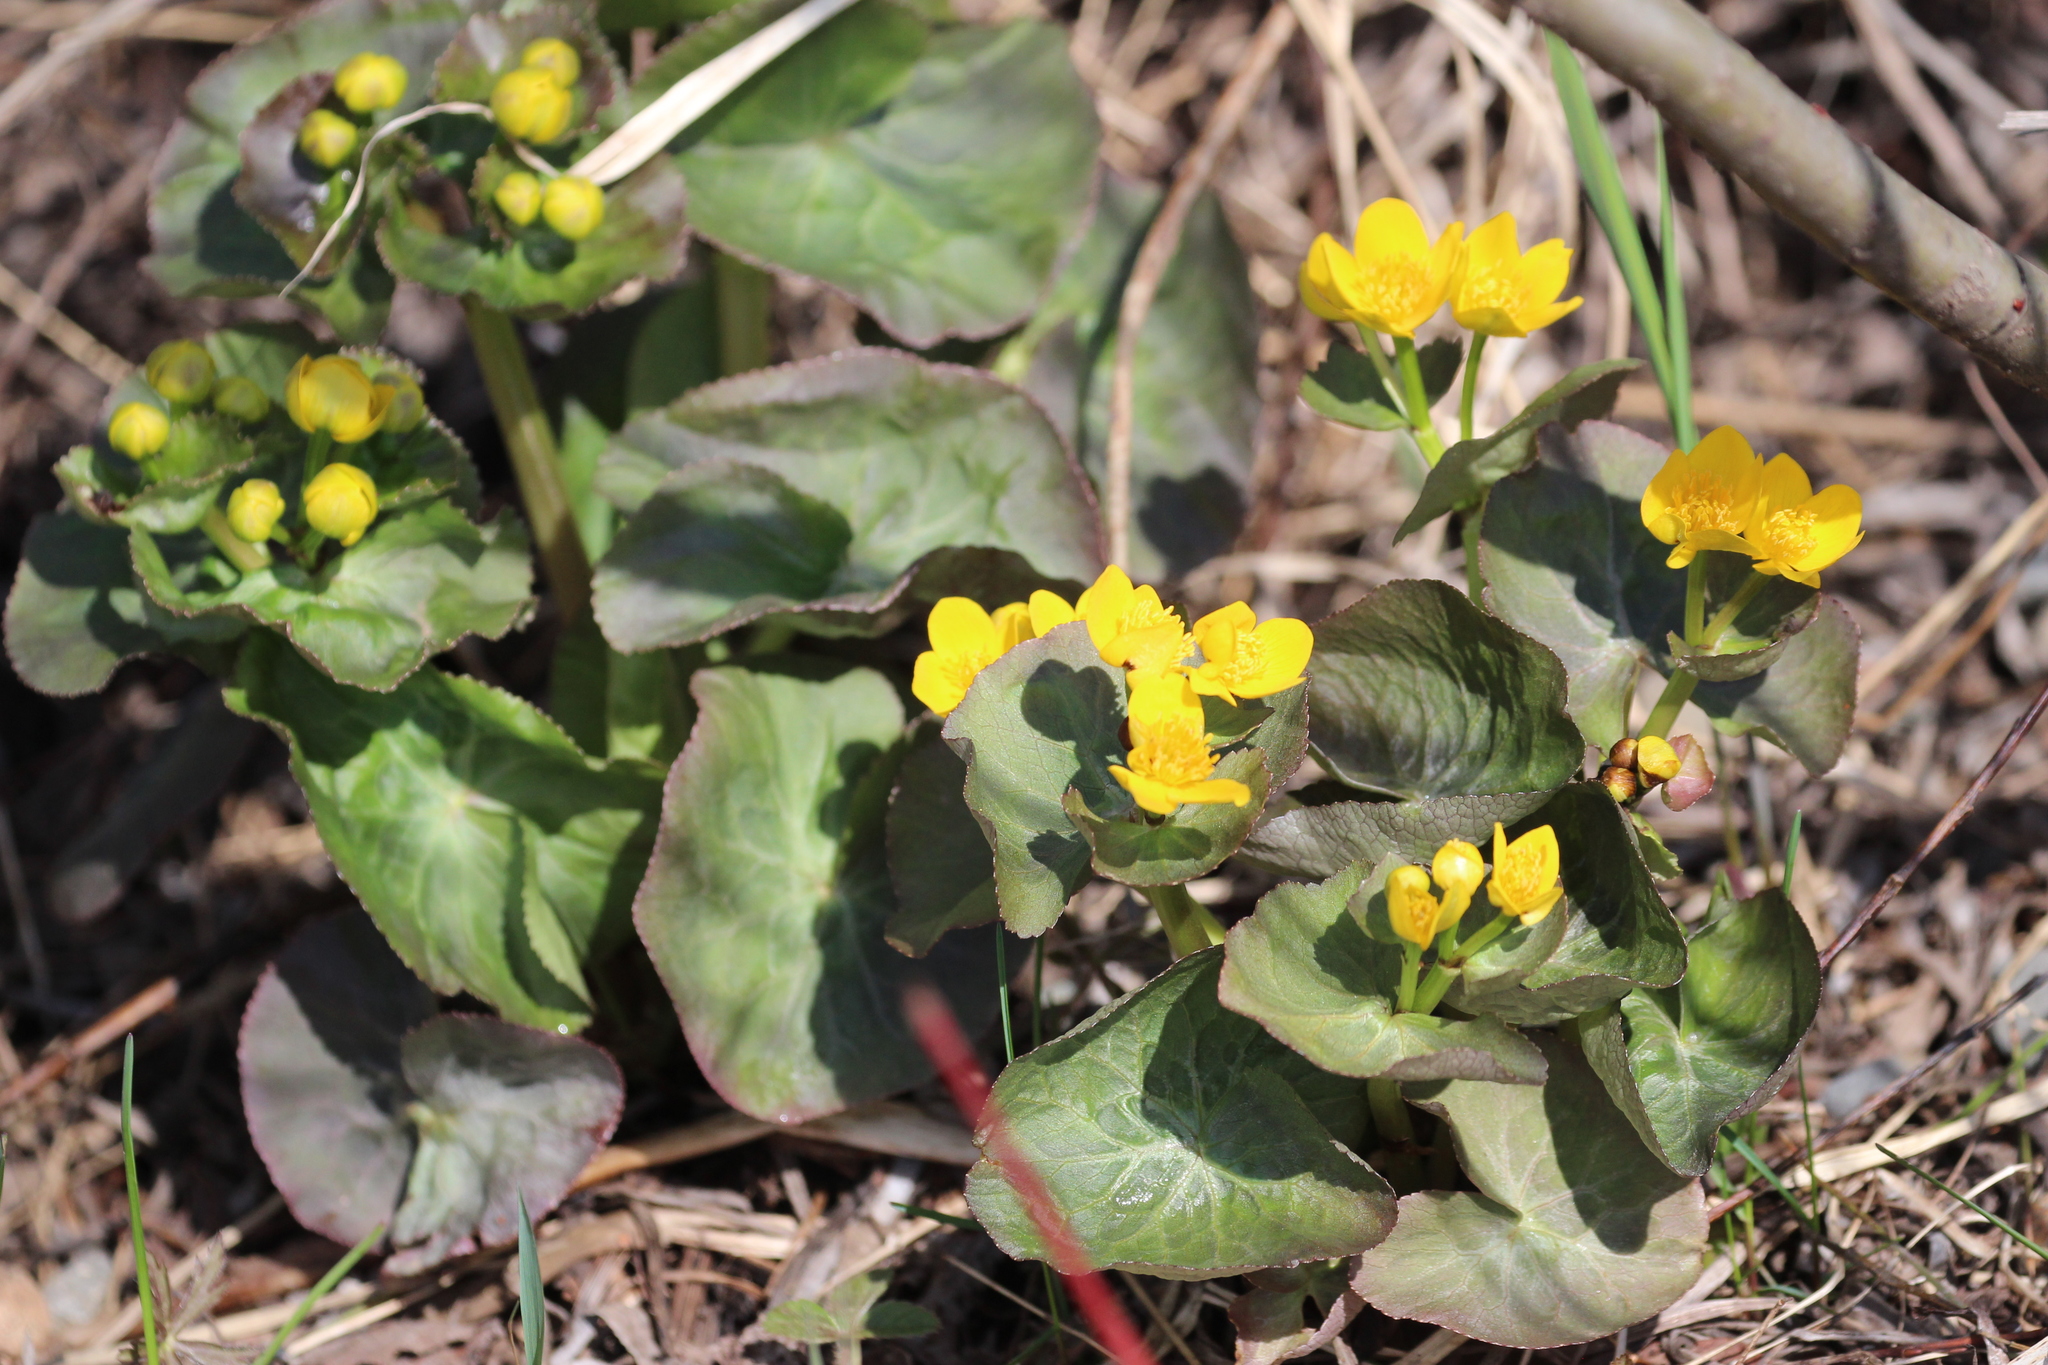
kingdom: Plantae
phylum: Tracheophyta
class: Magnoliopsida
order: Ranunculales
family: Ranunculaceae
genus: Caltha
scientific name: Caltha palustris
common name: Marsh marigold
